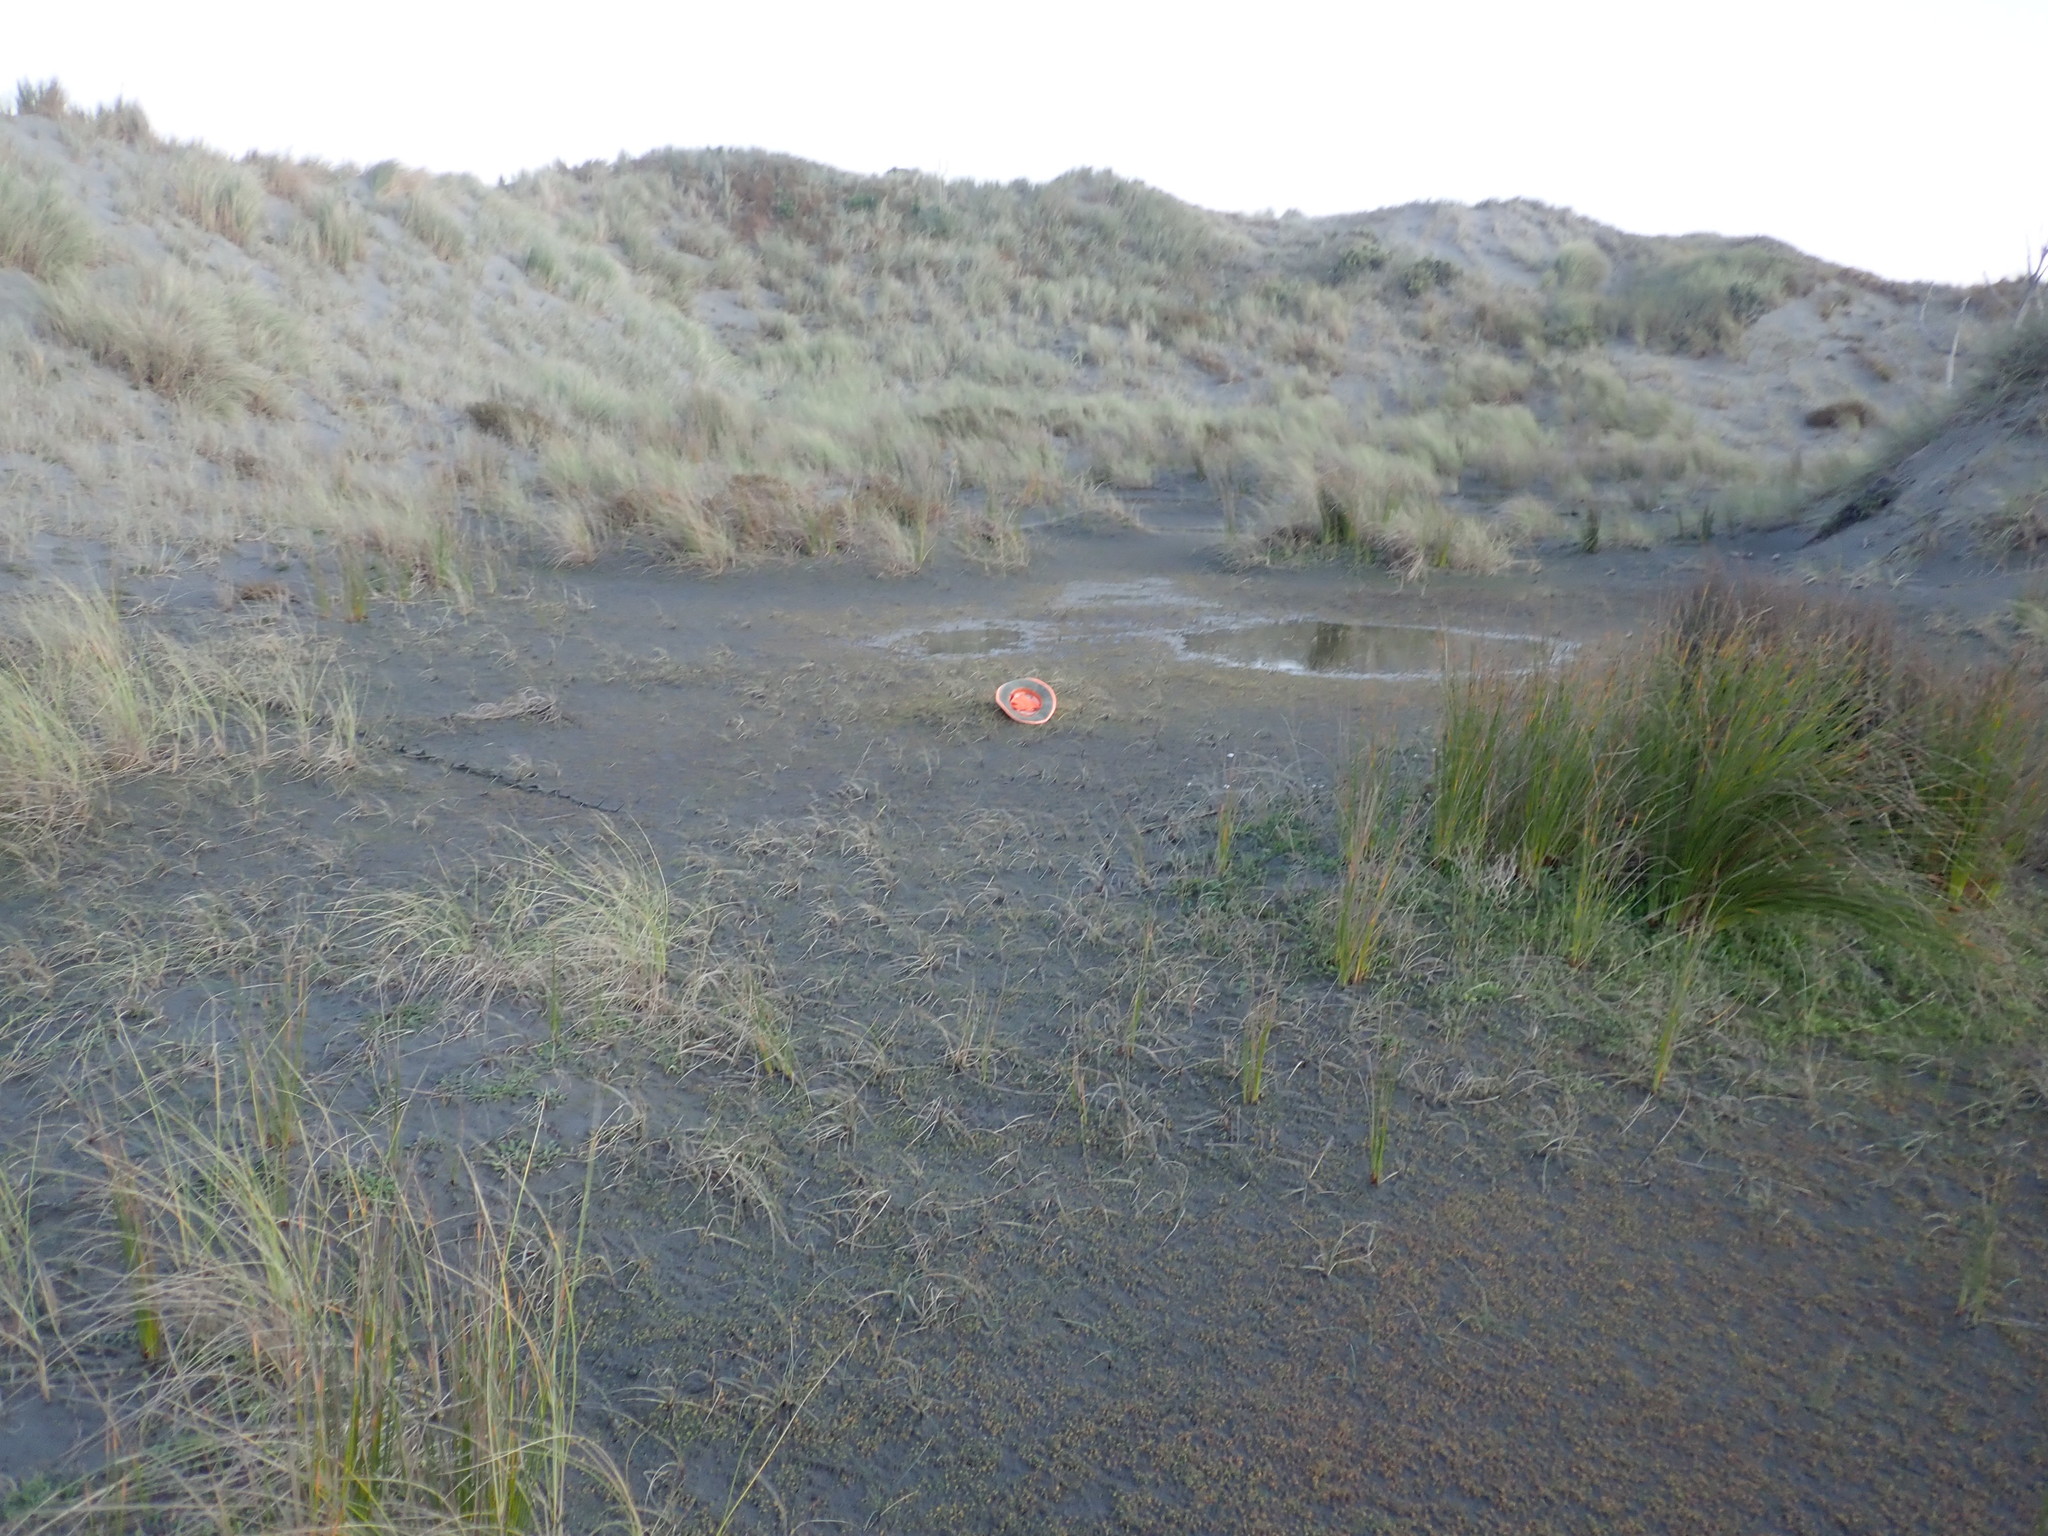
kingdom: Plantae
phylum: Tracheophyta
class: Liliopsida
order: Poales
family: Cyperaceae
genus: Isolepis
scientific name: Isolepis cernua
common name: Slender club-rush
